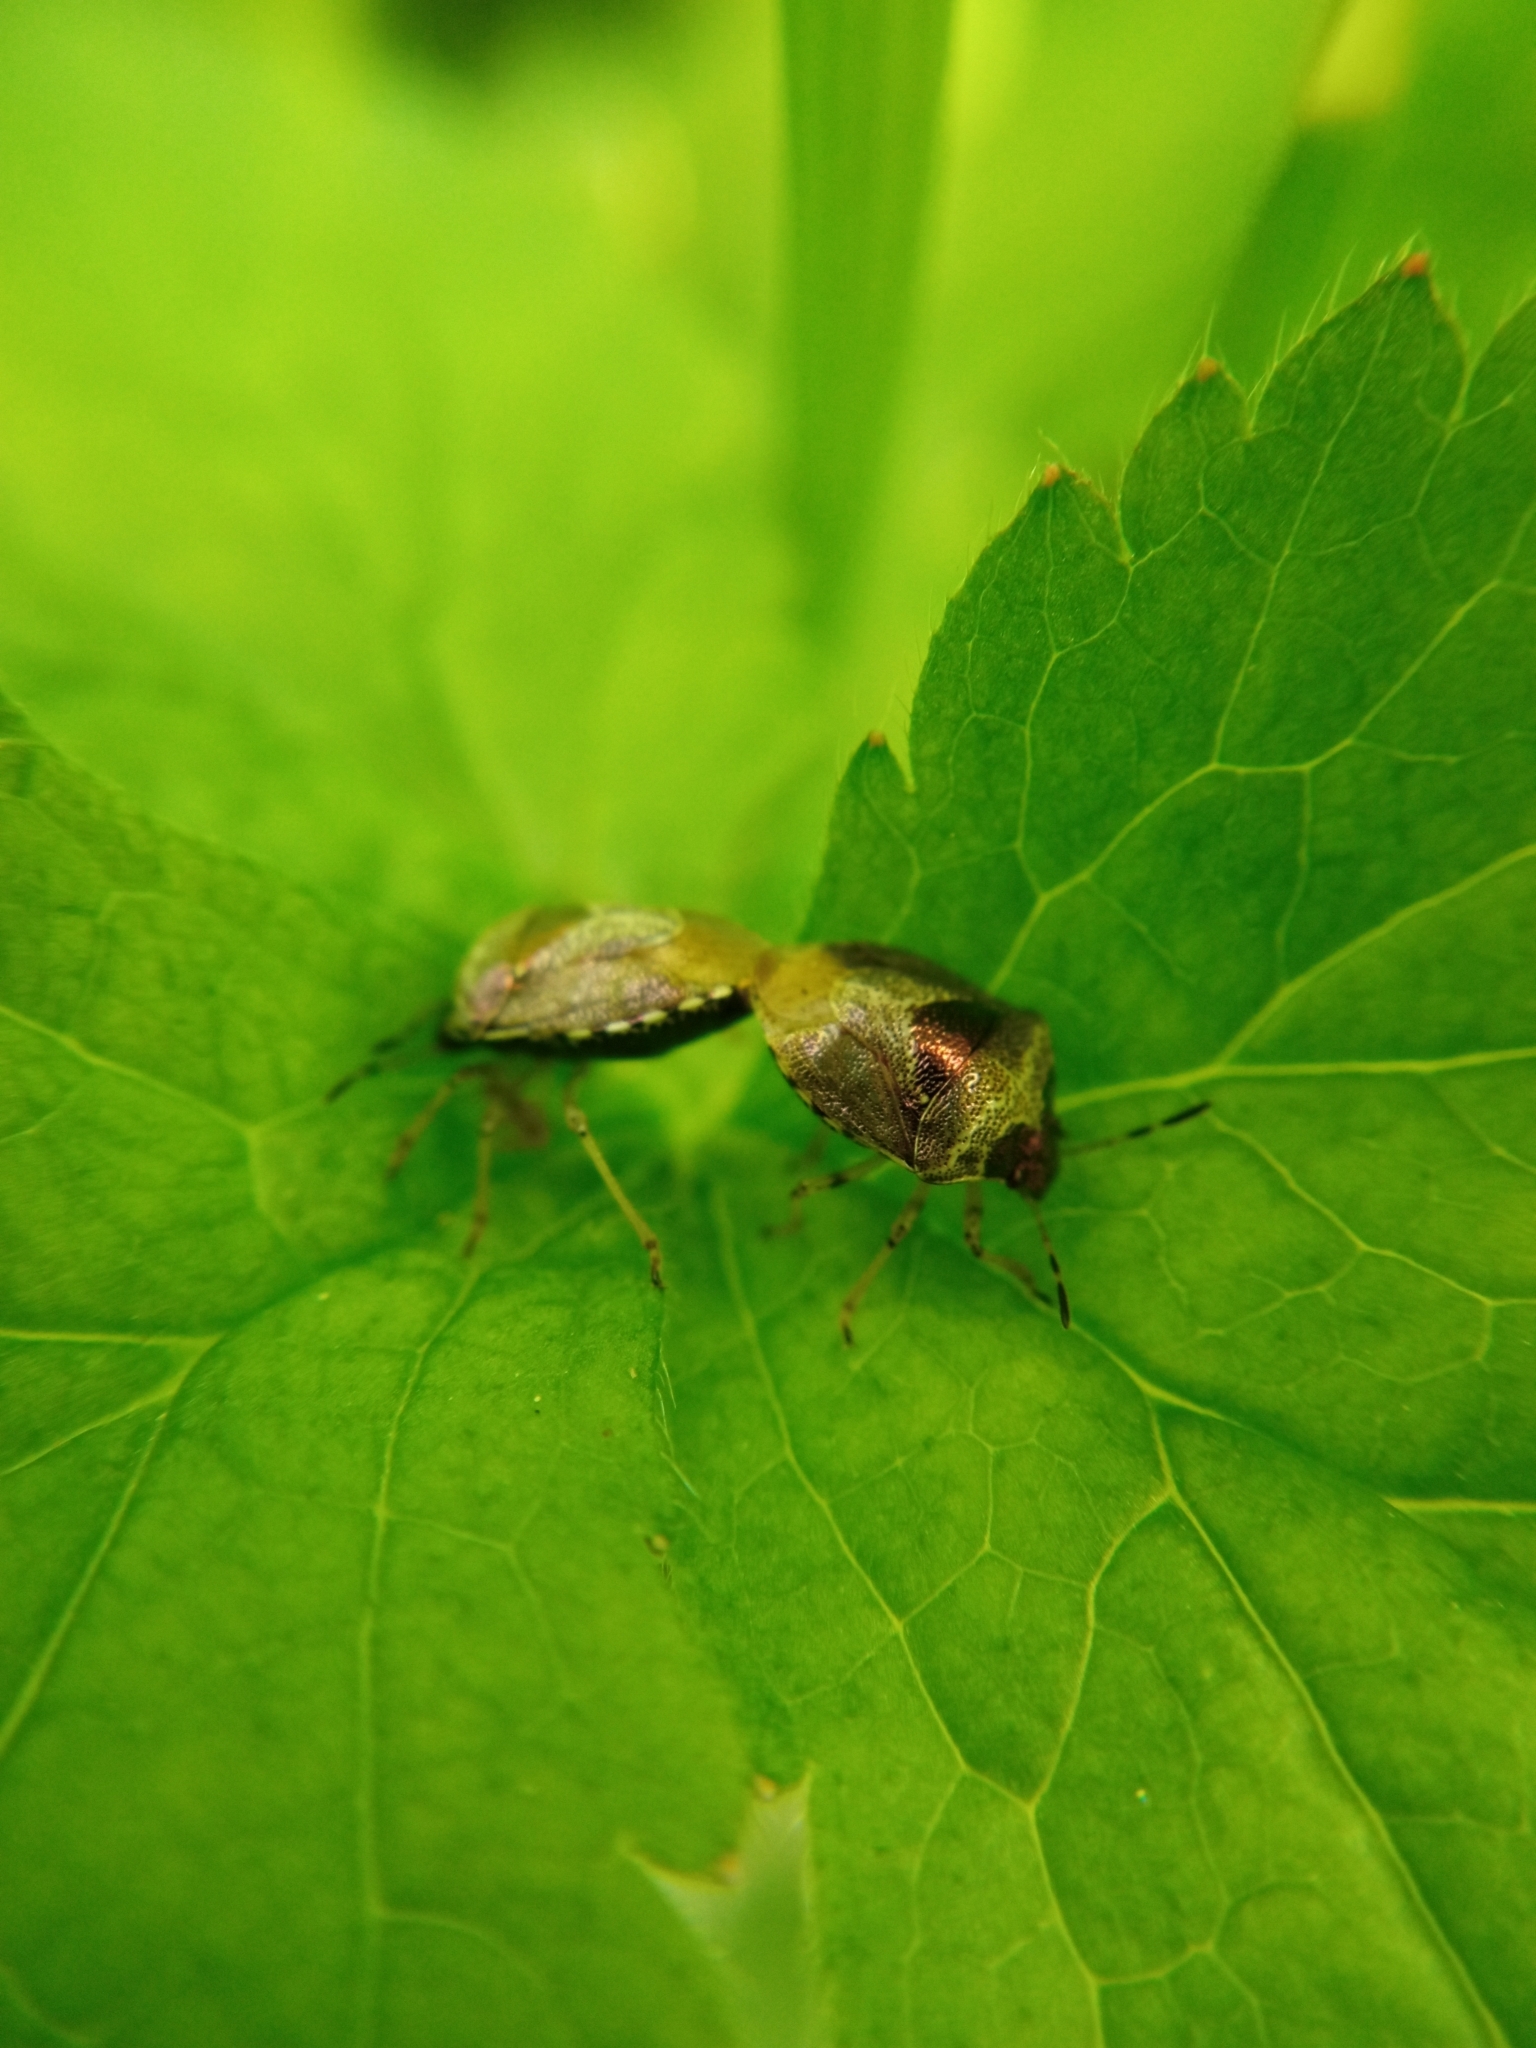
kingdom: Animalia
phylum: Arthropoda
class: Insecta
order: Hemiptera
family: Pentatomidae
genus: Eysarcoris
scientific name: Eysarcoris venustissimus
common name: Woundwort shieldbug
